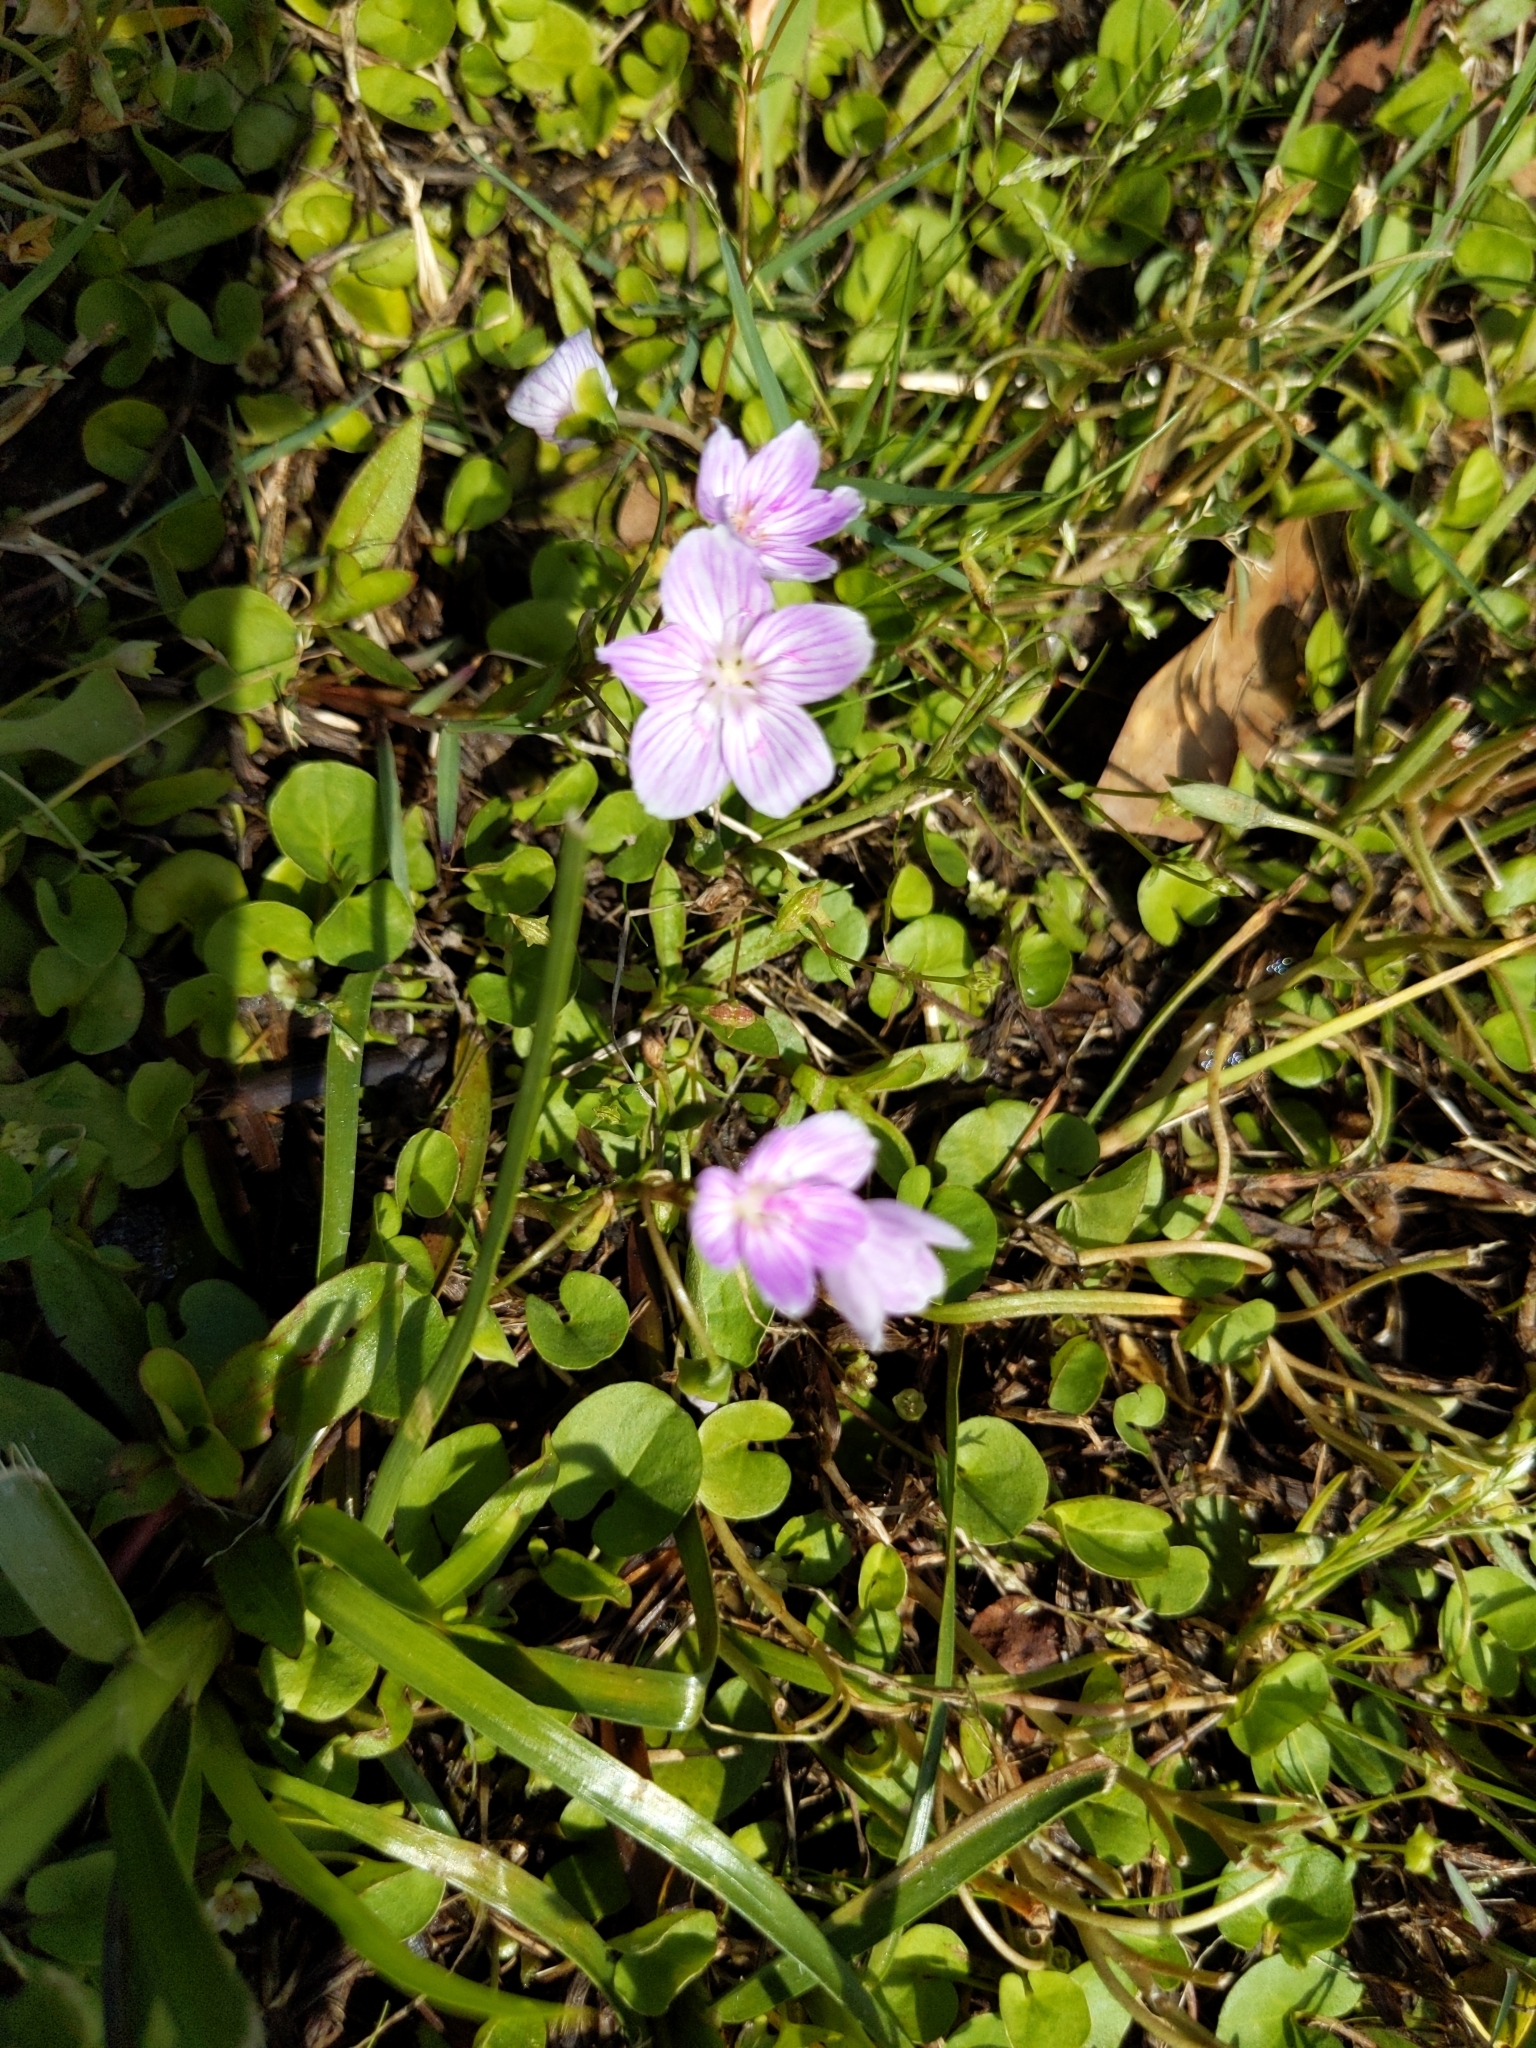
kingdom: Plantae
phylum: Tracheophyta
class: Magnoliopsida
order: Caryophyllales
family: Montiaceae
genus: Claytonia
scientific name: Claytonia virginica
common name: Virginia springbeauty
